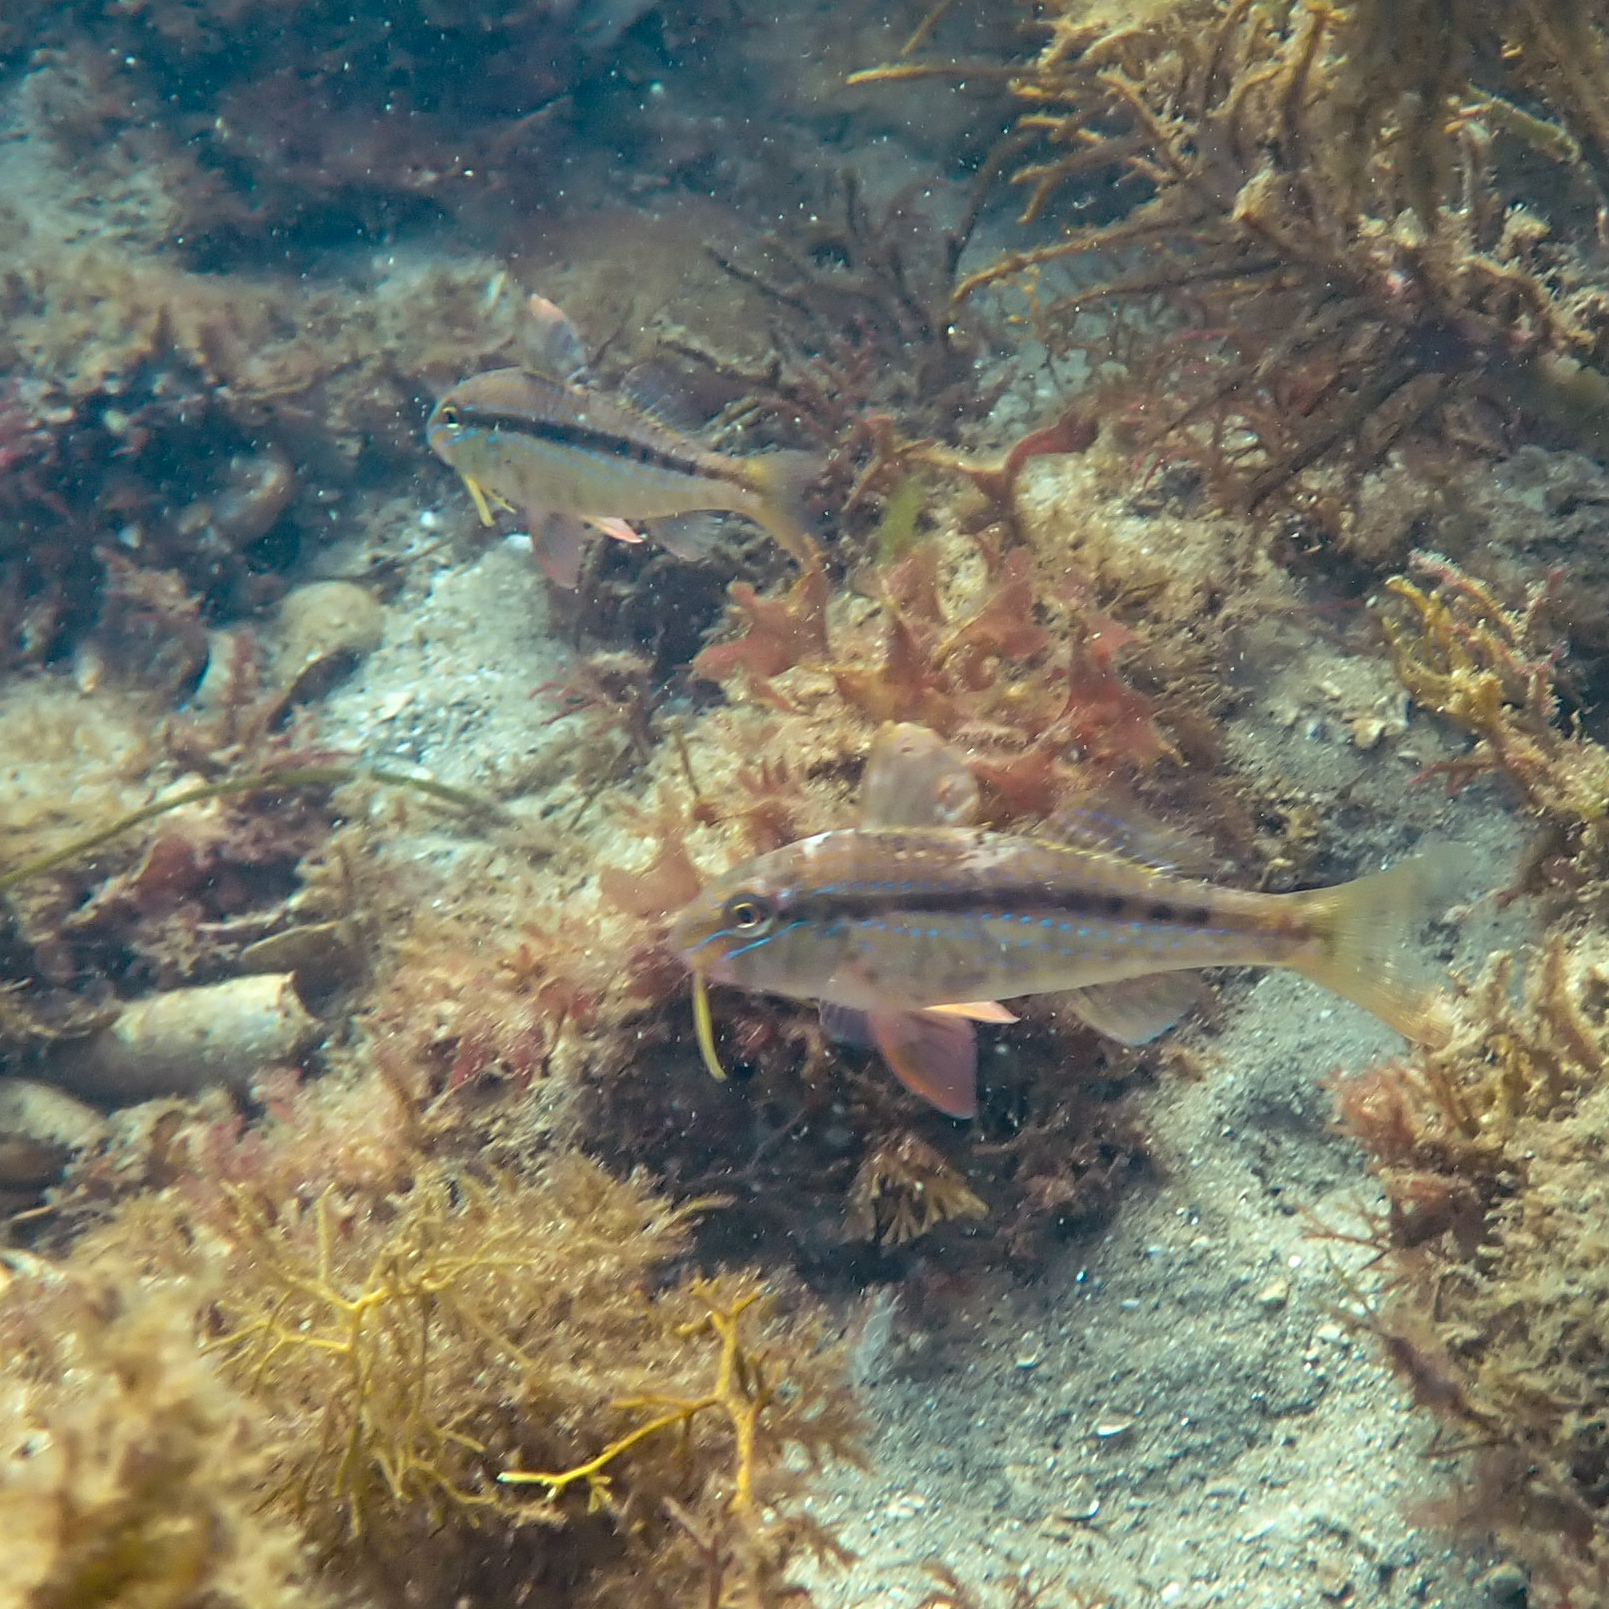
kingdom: Animalia
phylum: Chordata
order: Perciformes
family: Mullidae
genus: Upeneichthys
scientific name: Upeneichthys vlamingii
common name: Red mullet
